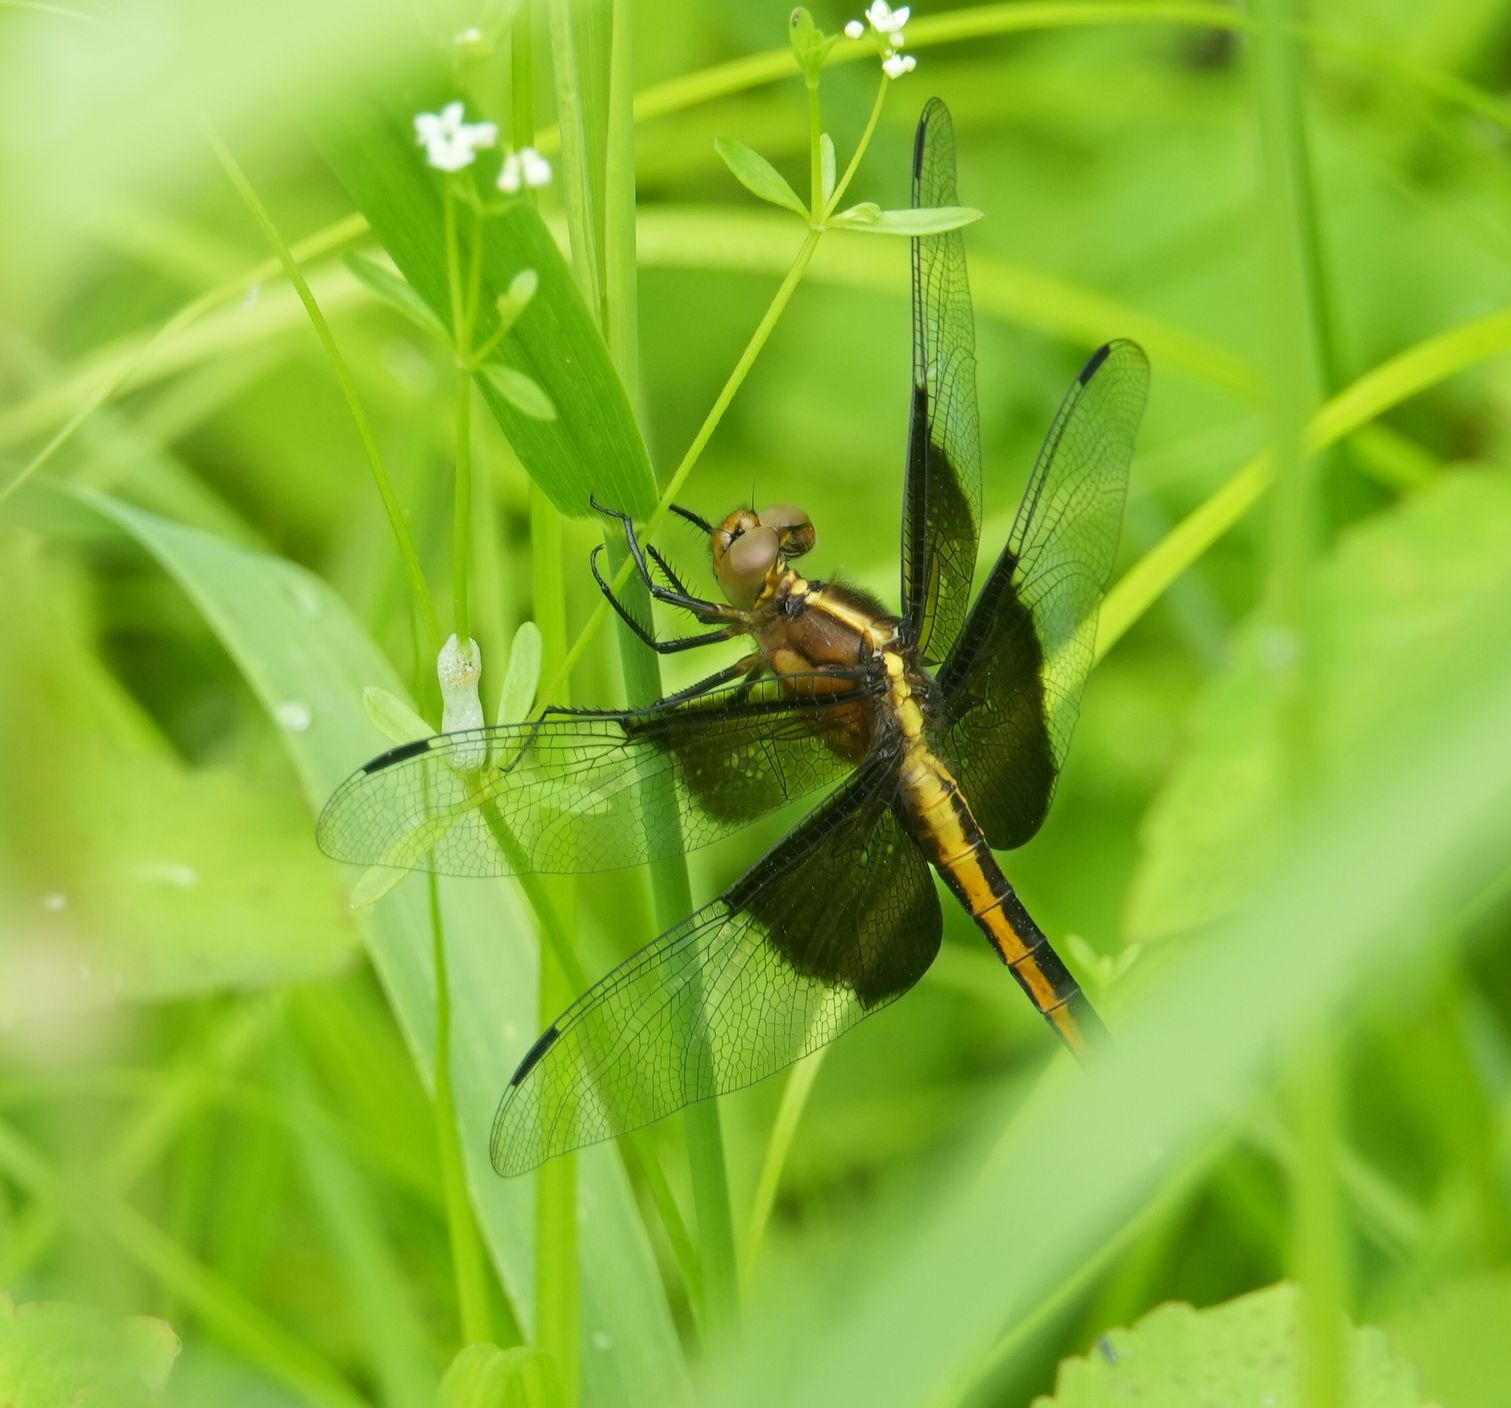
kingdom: Animalia
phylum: Arthropoda
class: Insecta
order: Odonata
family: Libellulidae
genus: Libellula
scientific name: Libellula luctuosa
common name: Widow skimmer
